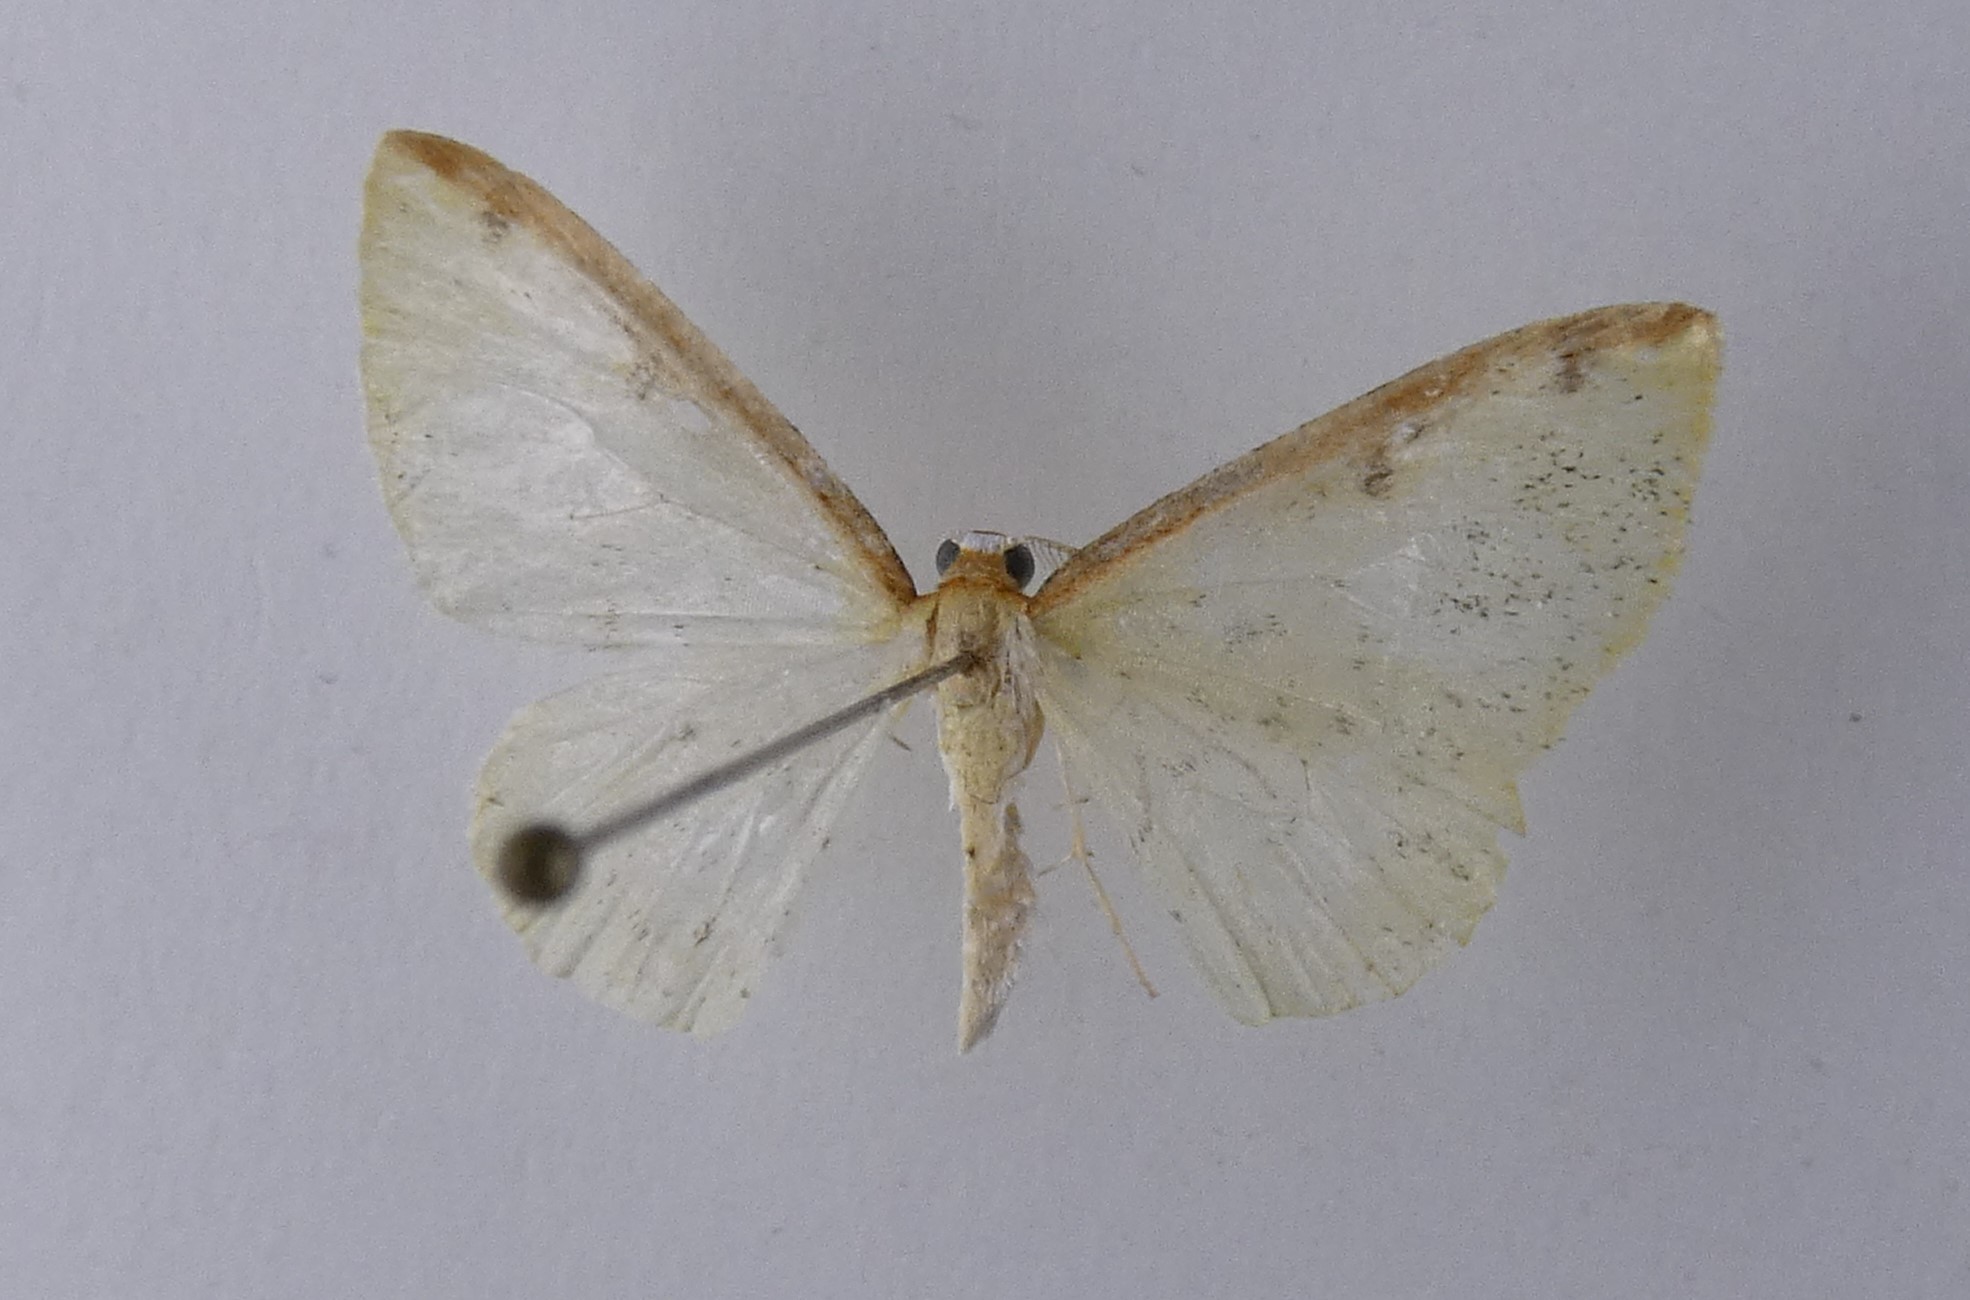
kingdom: Animalia
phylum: Arthropoda
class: Insecta
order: Lepidoptera
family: Geometridae
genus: Epiphryne
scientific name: Epiphryne undosata
